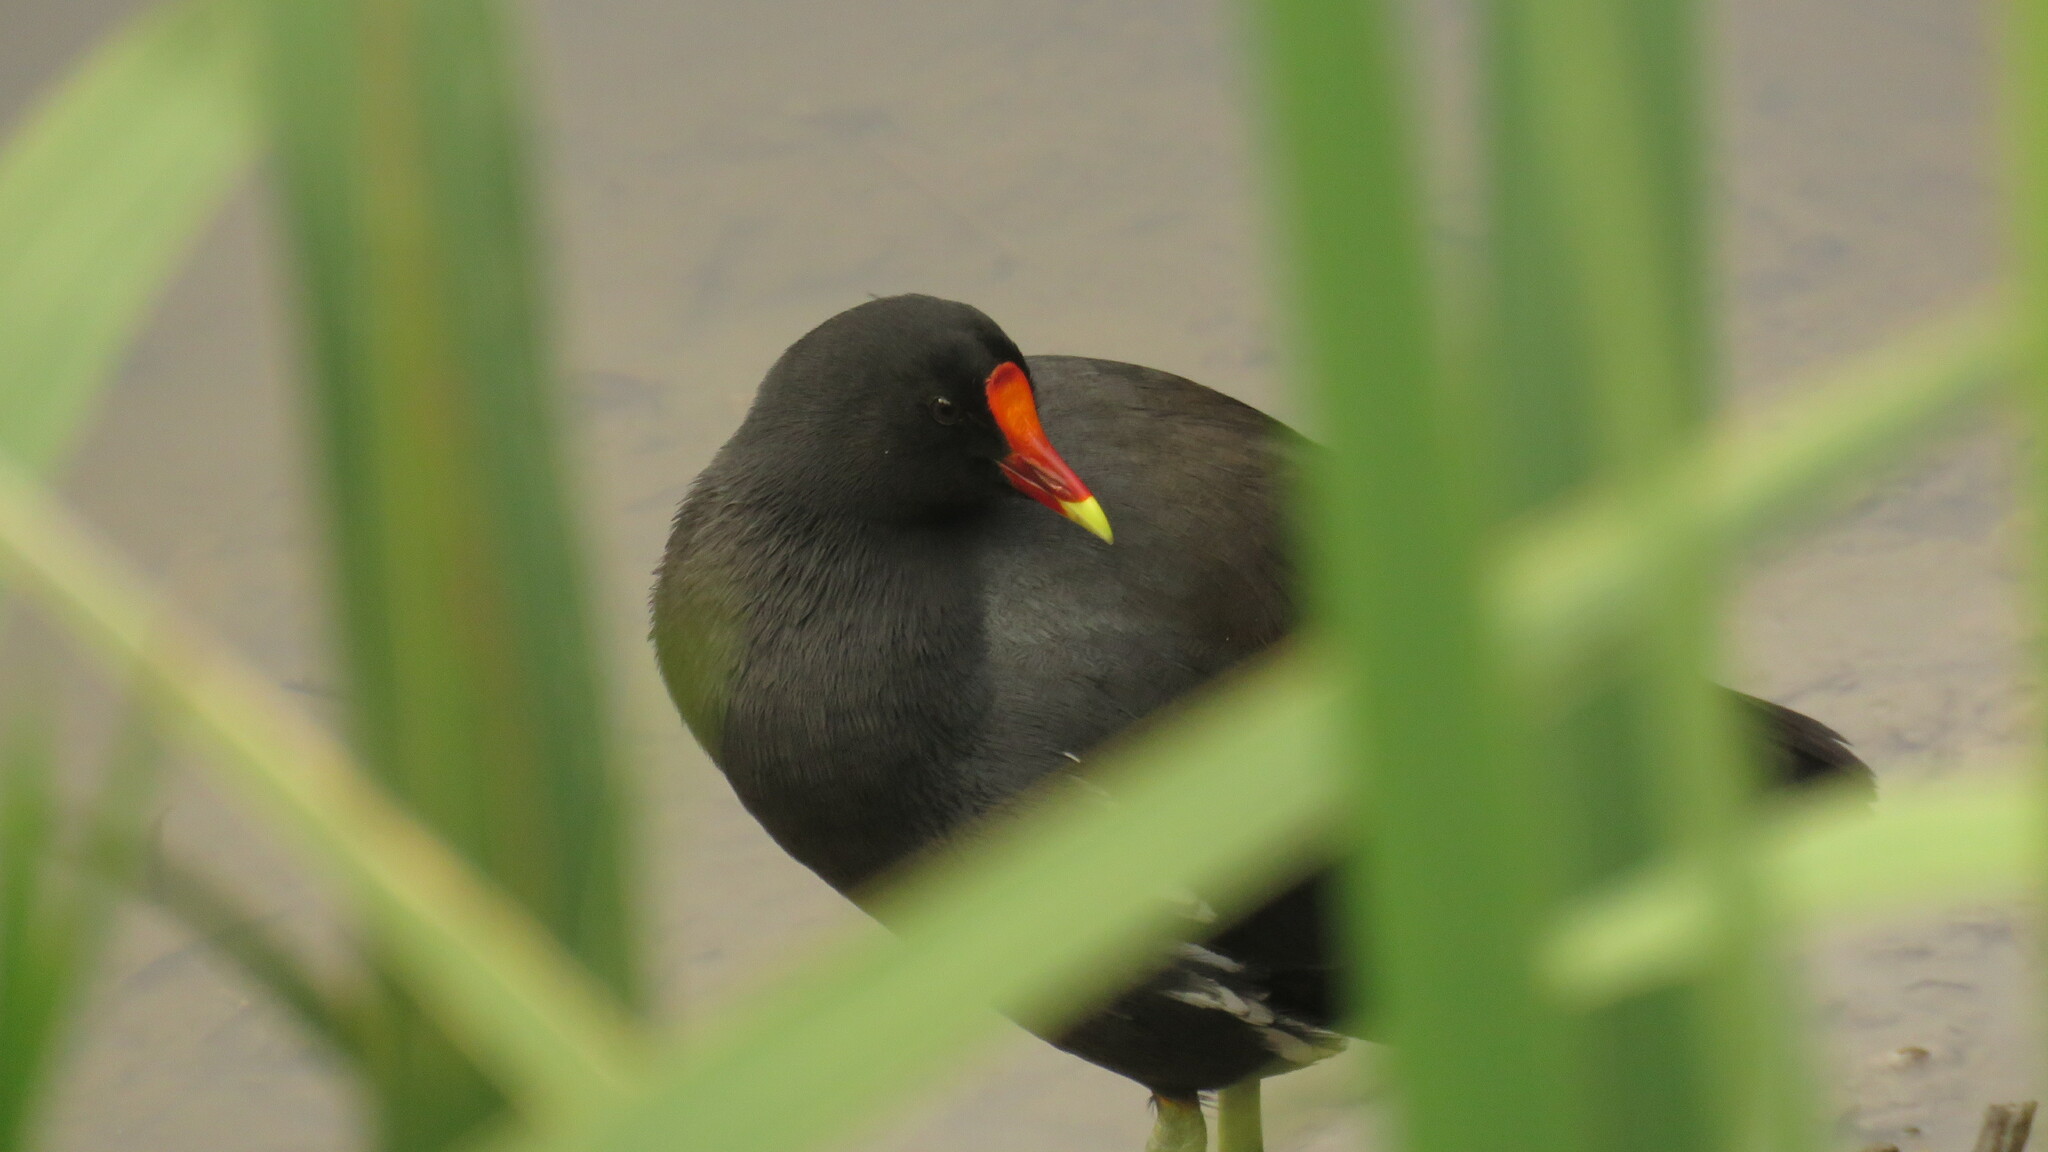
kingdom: Animalia
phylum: Chordata
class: Aves
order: Gruiformes
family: Rallidae
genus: Gallinula
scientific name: Gallinula chloropus
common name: Common moorhen
